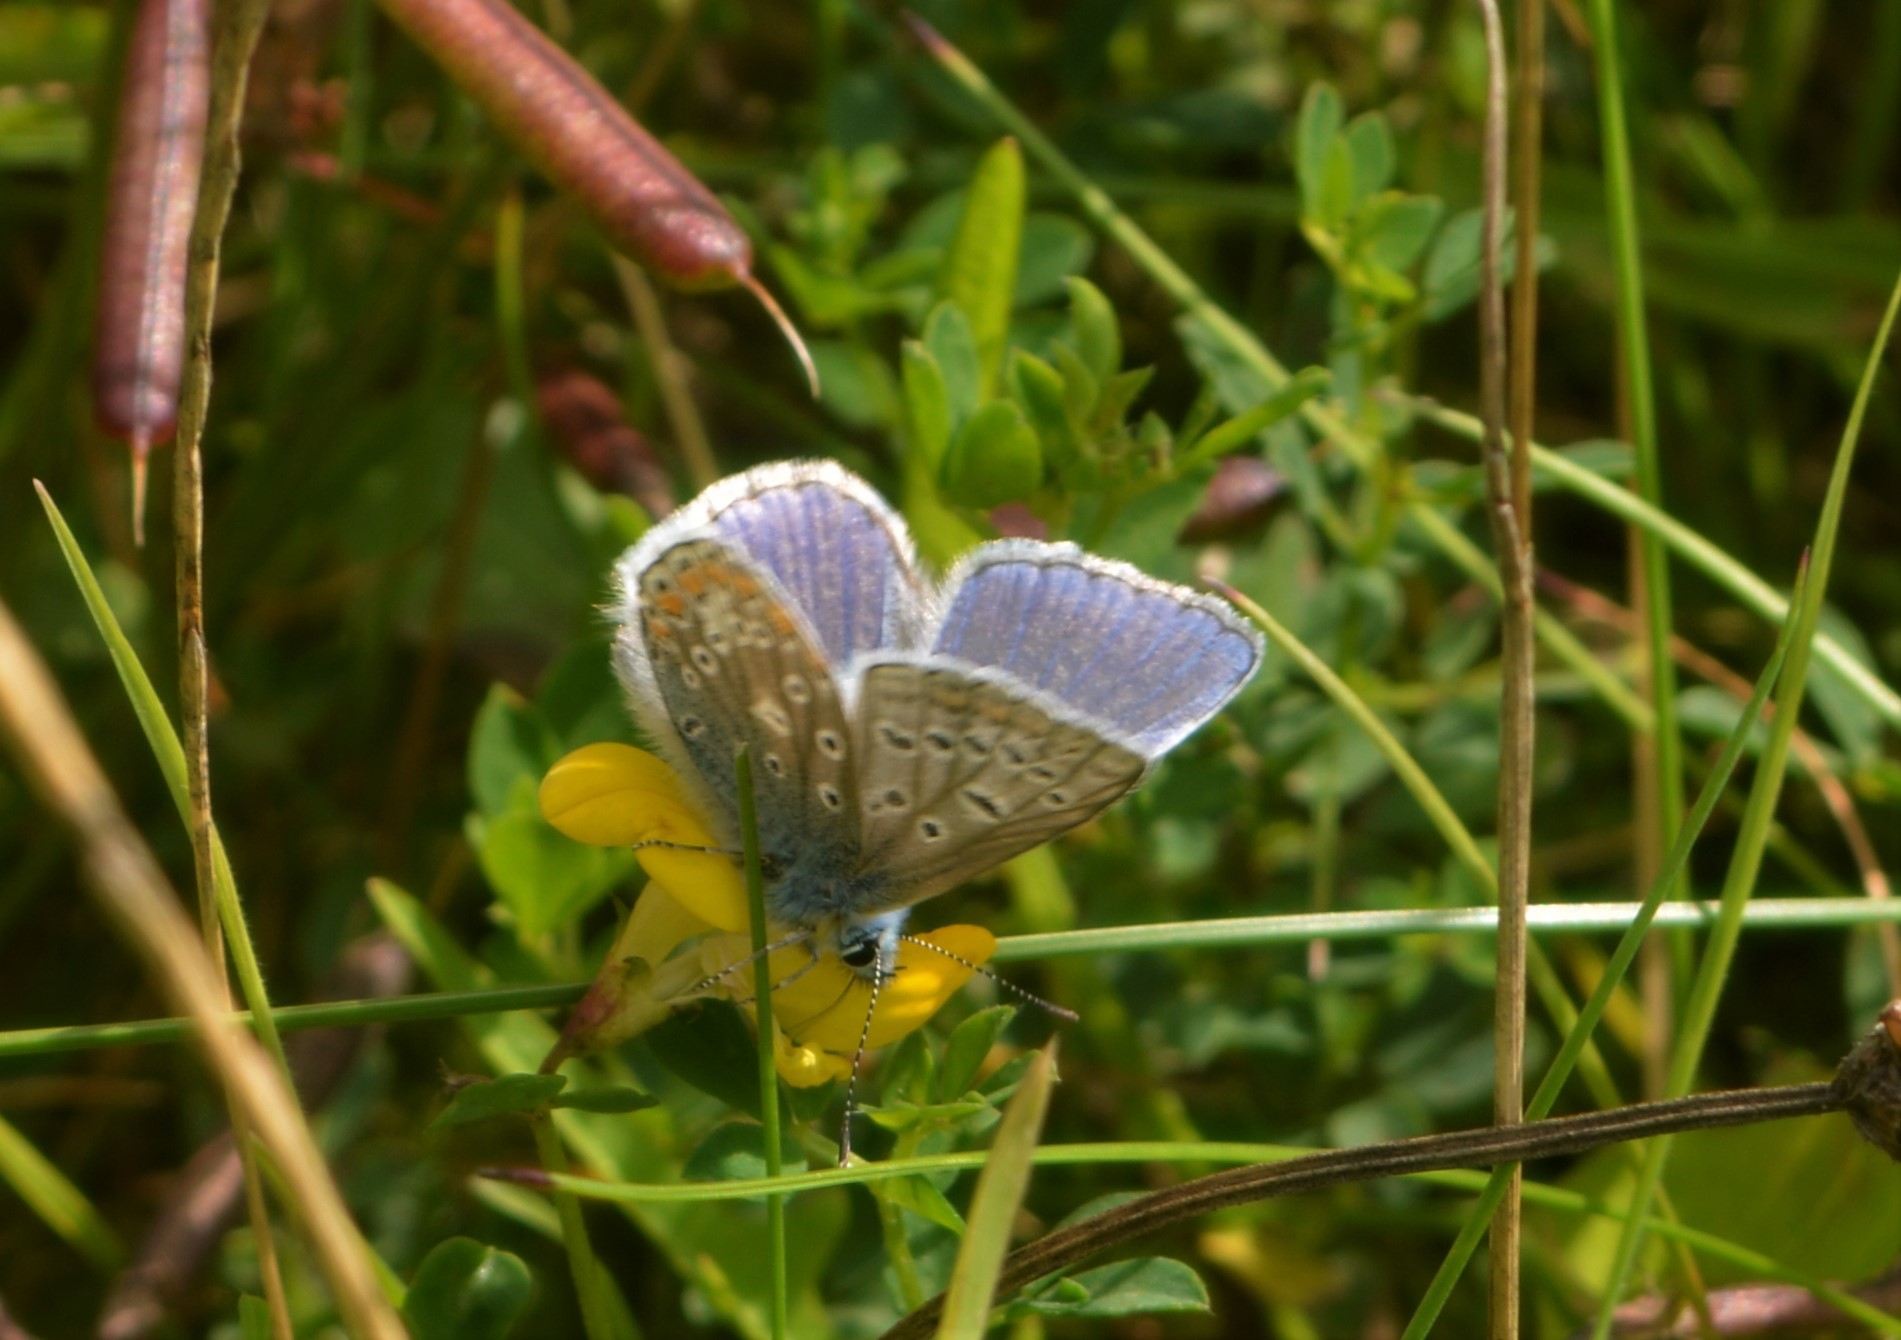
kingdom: Animalia
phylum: Arthropoda
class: Insecta
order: Lepidoptera
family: Lycaenidae
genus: Polyommatus
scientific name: Polyommatus icarus
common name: Common blue
